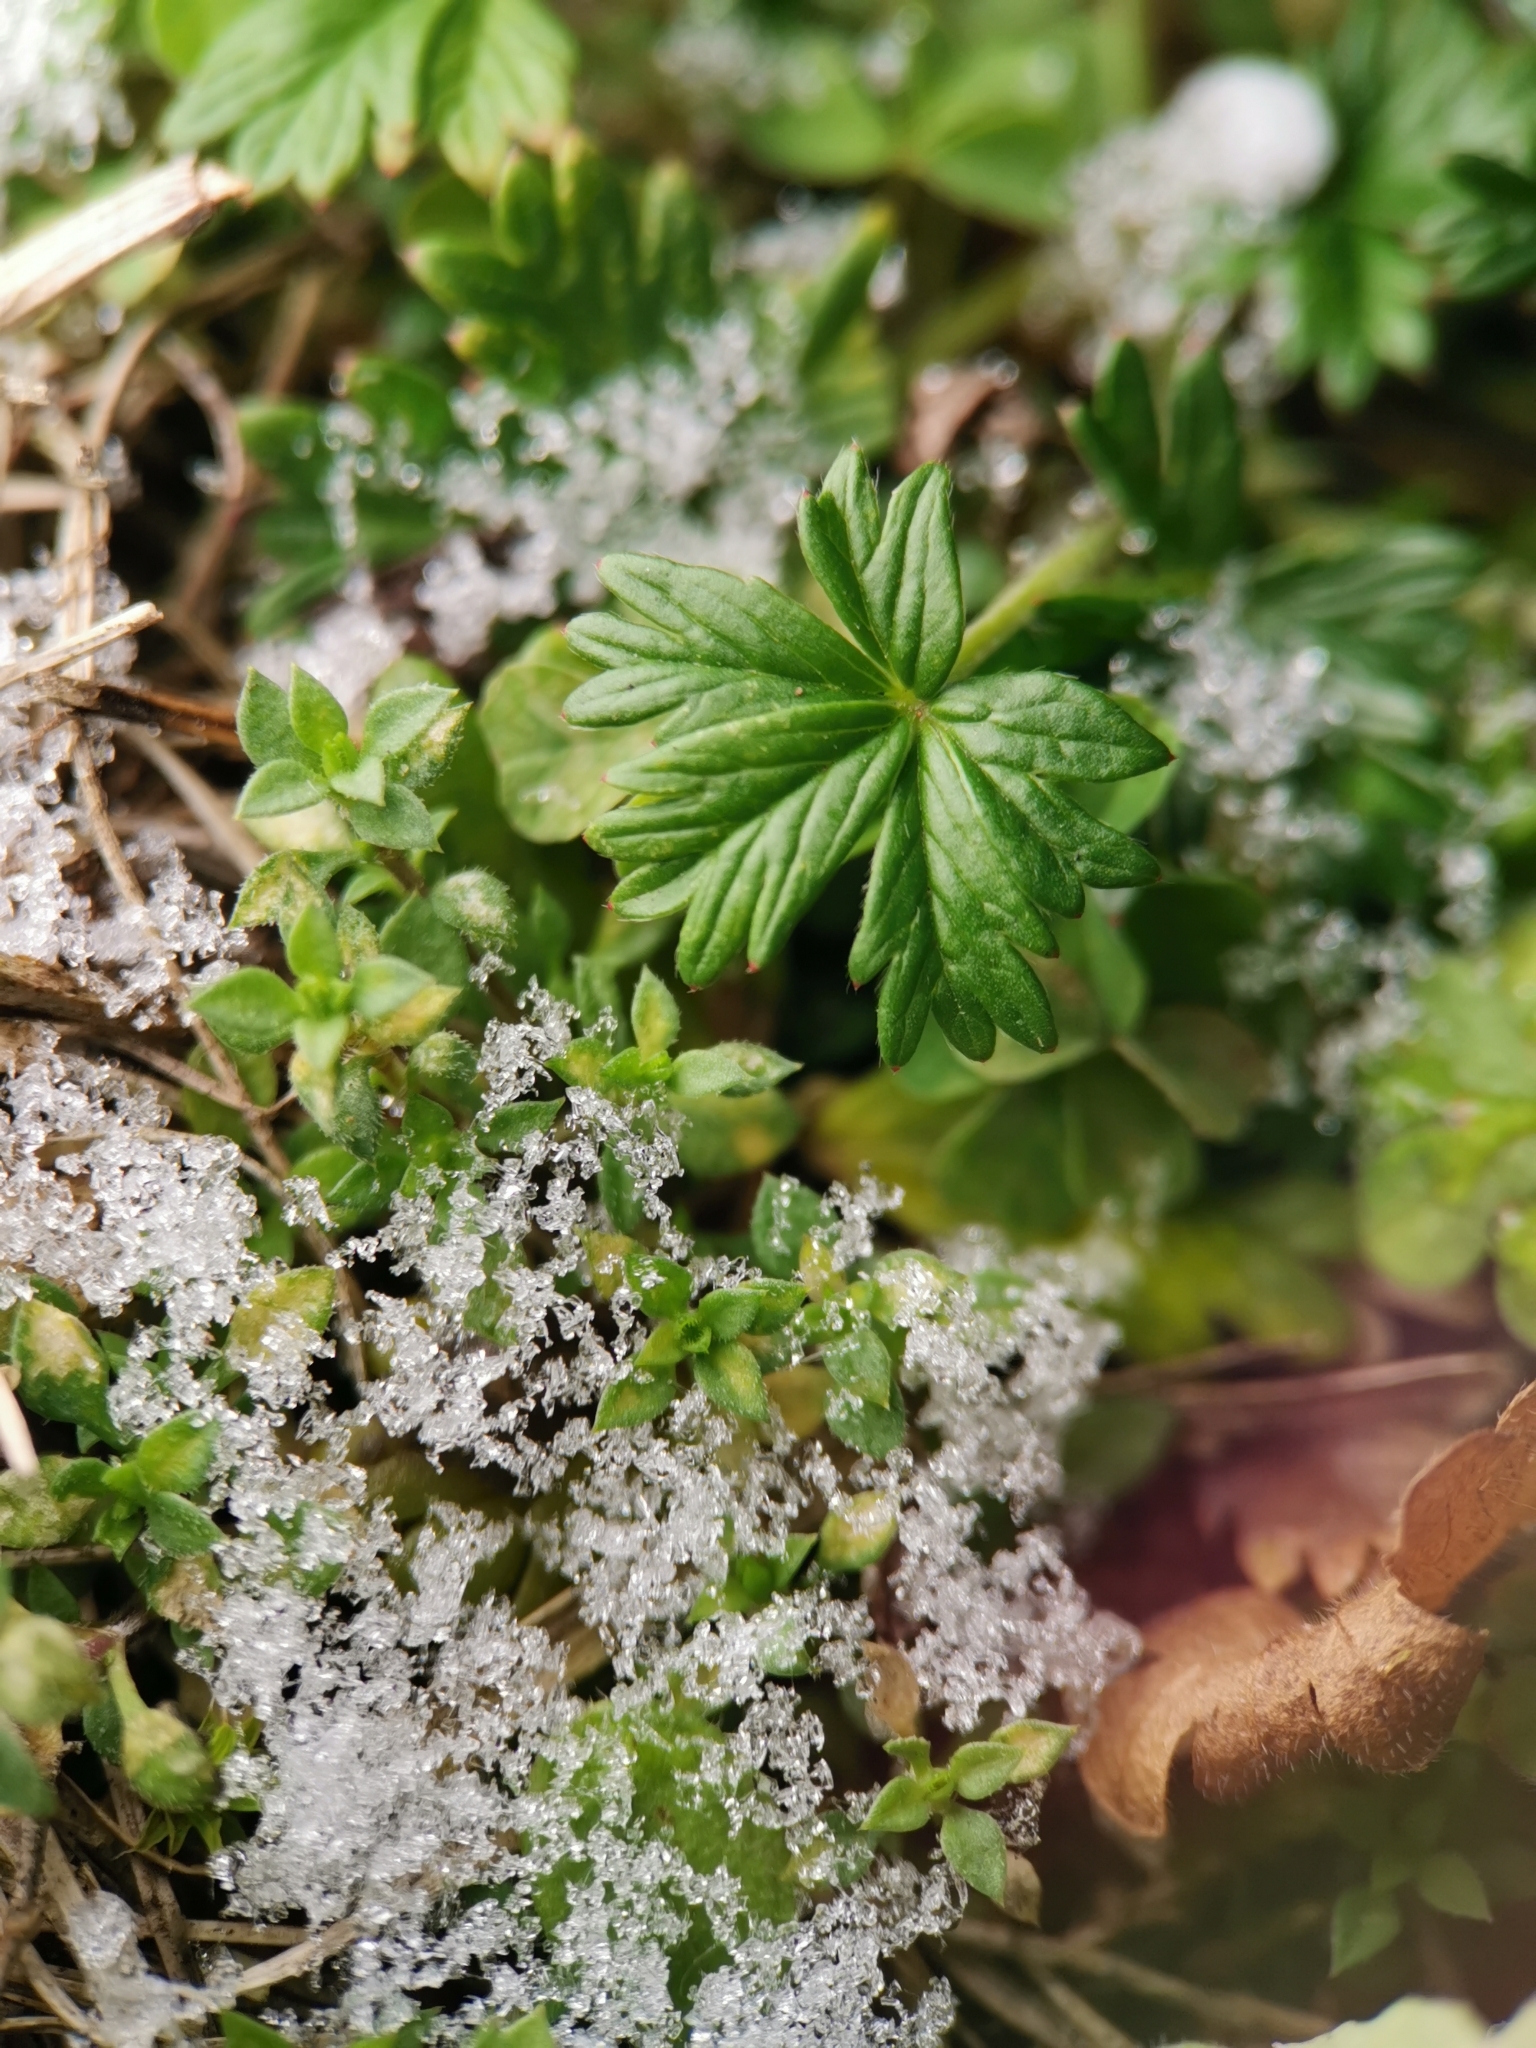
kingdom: Plantae
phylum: Tracheophyta
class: Magnoliopsida
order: Rosales
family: Rosaceae
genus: Potentilla
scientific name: Potentilla argentea
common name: Hoary cinquefoil
